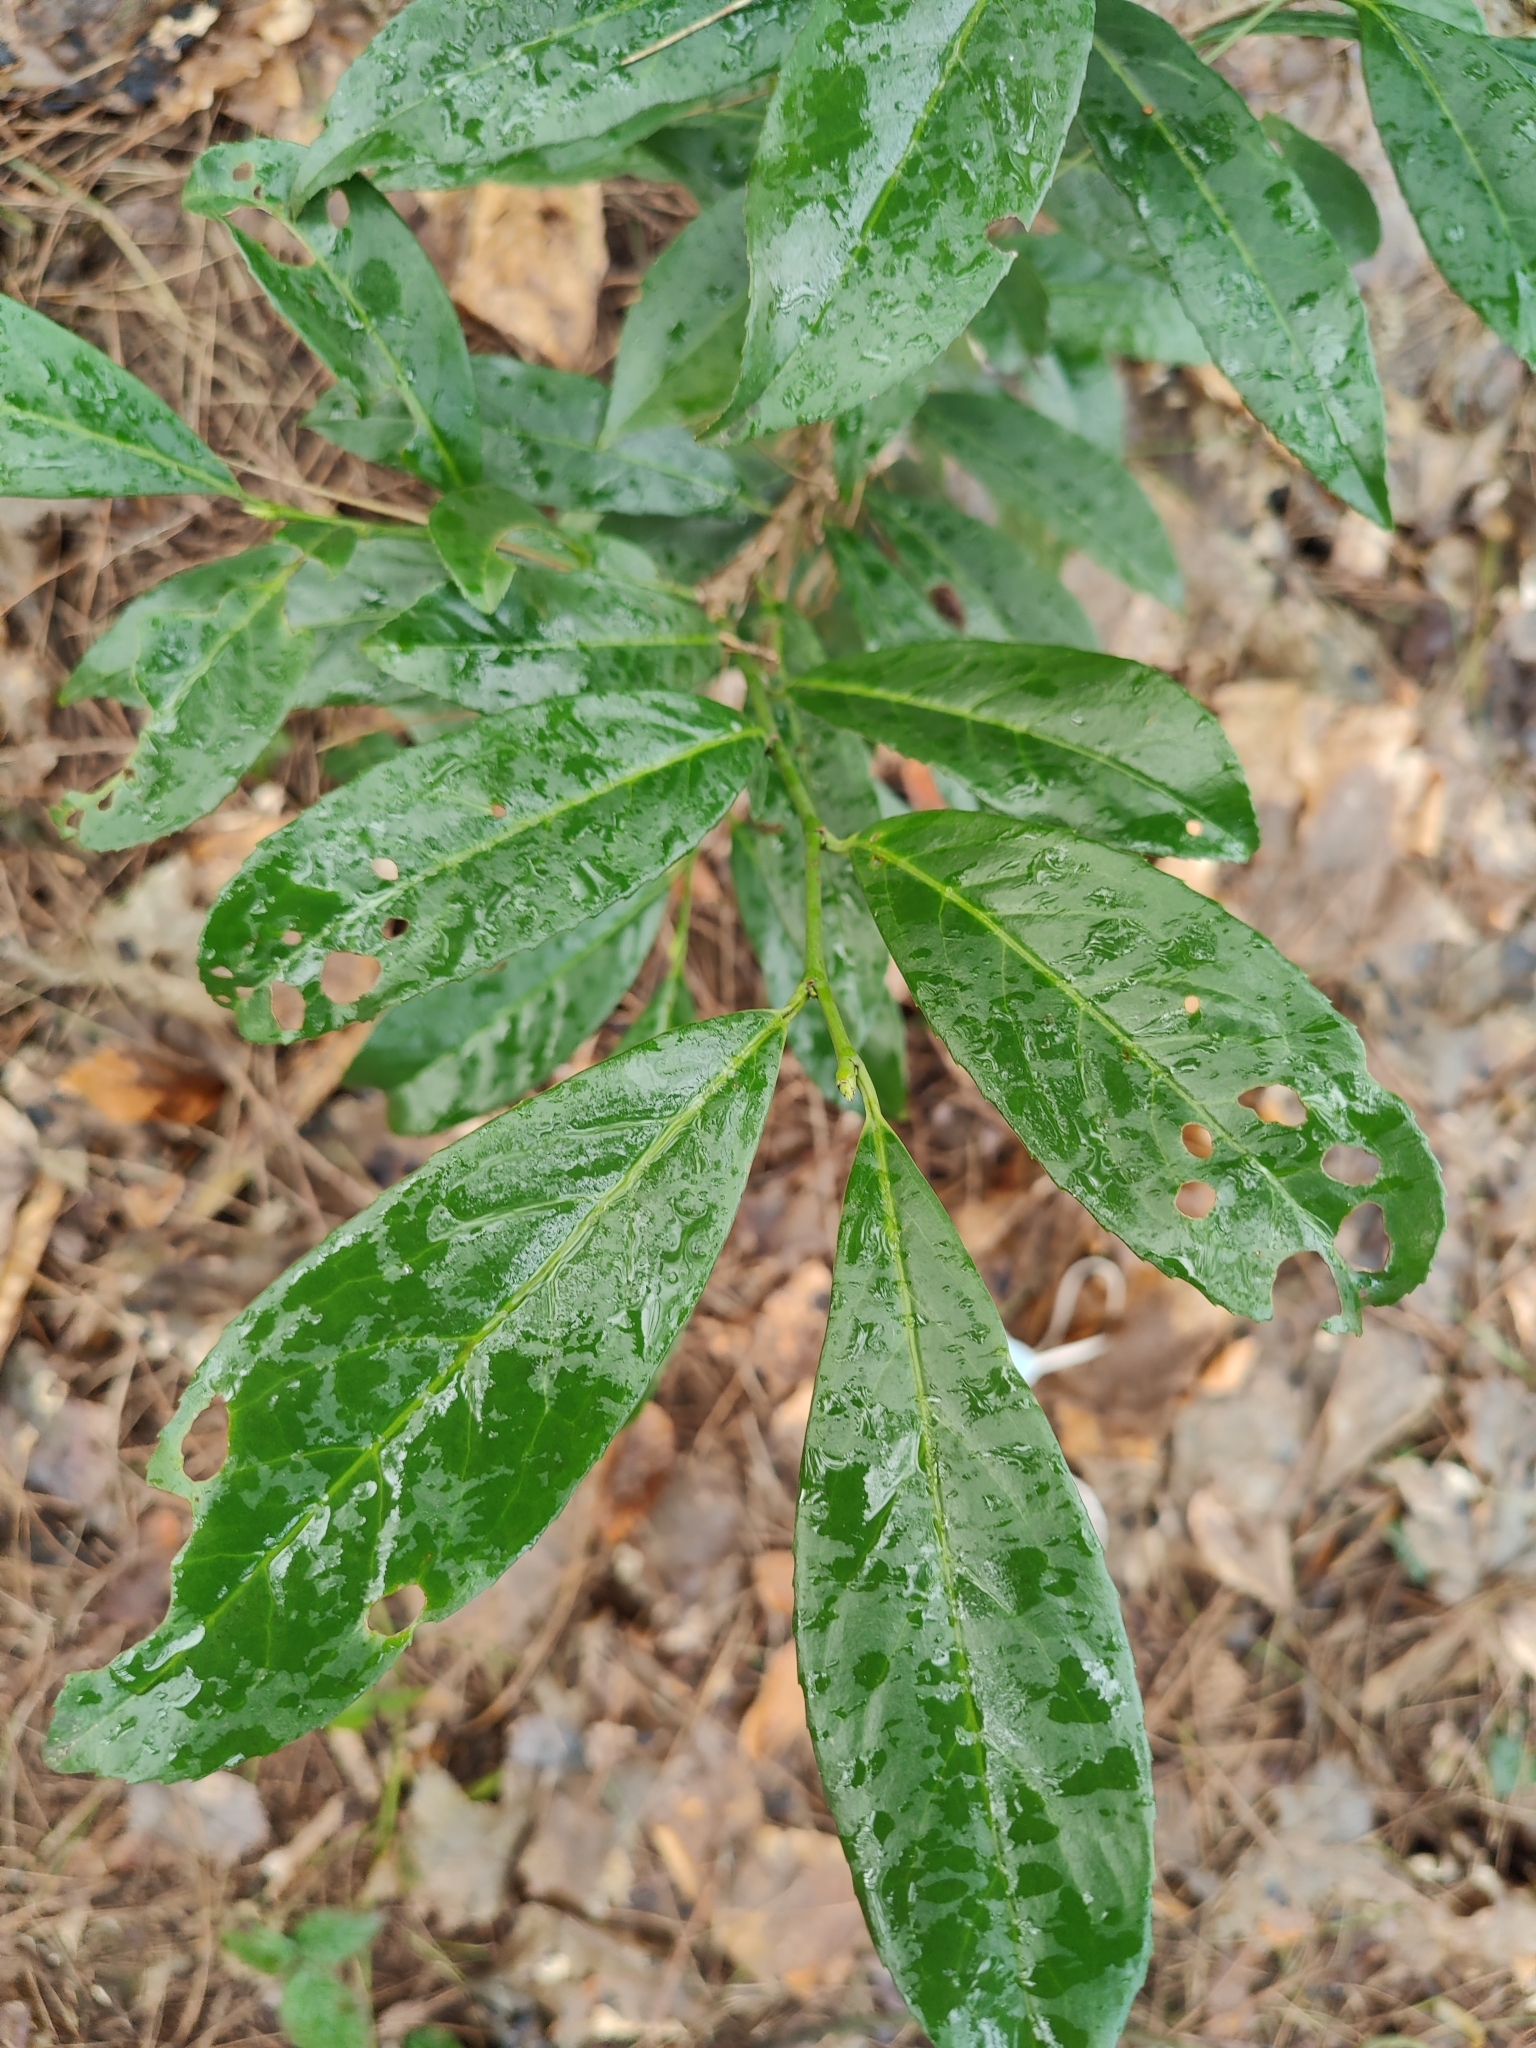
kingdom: Plantae
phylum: Tracheophyta
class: Magnoliopsida
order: Rosales
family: Rosaceae
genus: Prunus
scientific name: Prunus laurocerasus
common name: Cherry laurel
